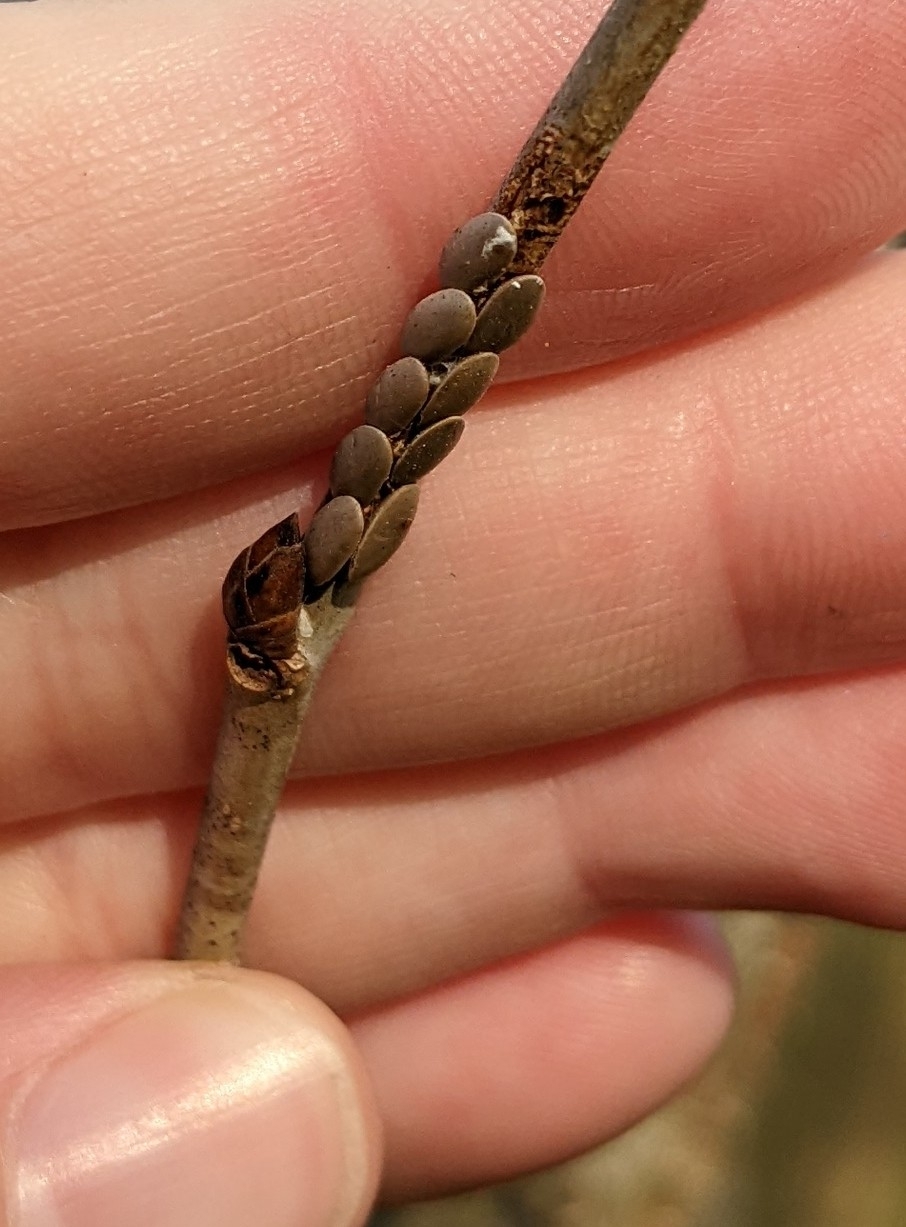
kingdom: Animalia
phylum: Arthropoda
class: Insecta
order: Orthoptera
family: Tettigoniidae
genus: Microcentrum
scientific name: Microcentrum rhombifolium
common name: Broad-winged katydid
